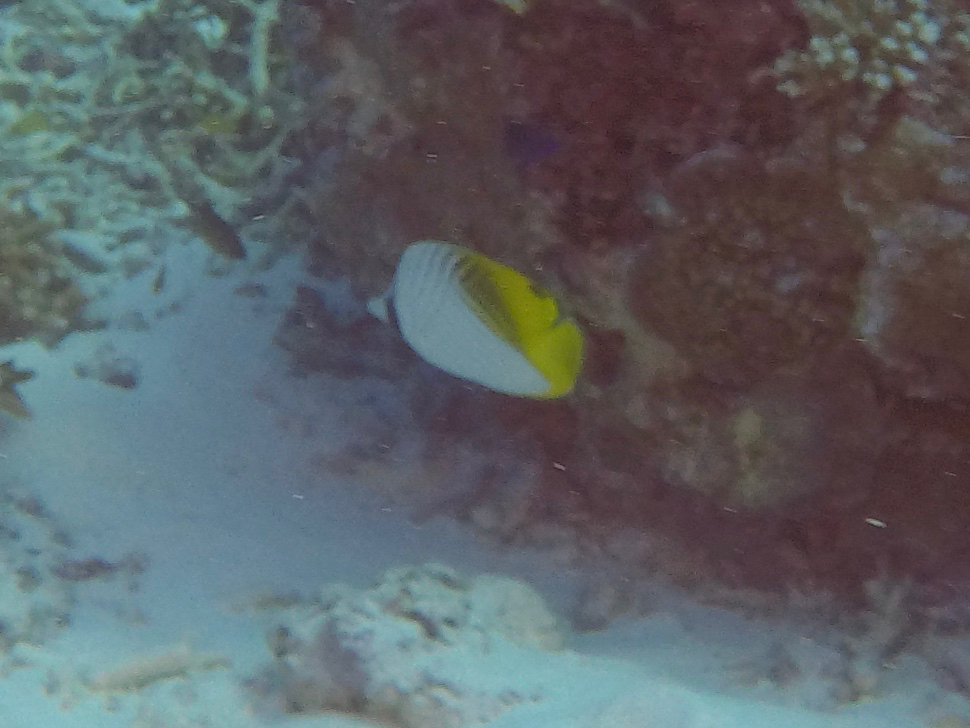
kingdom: Animalia
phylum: Chordata
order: Perciformes
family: Chaetodontidae
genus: Chaetodon
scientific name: Chaetodon auriga
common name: Threadfin butterflyfish
